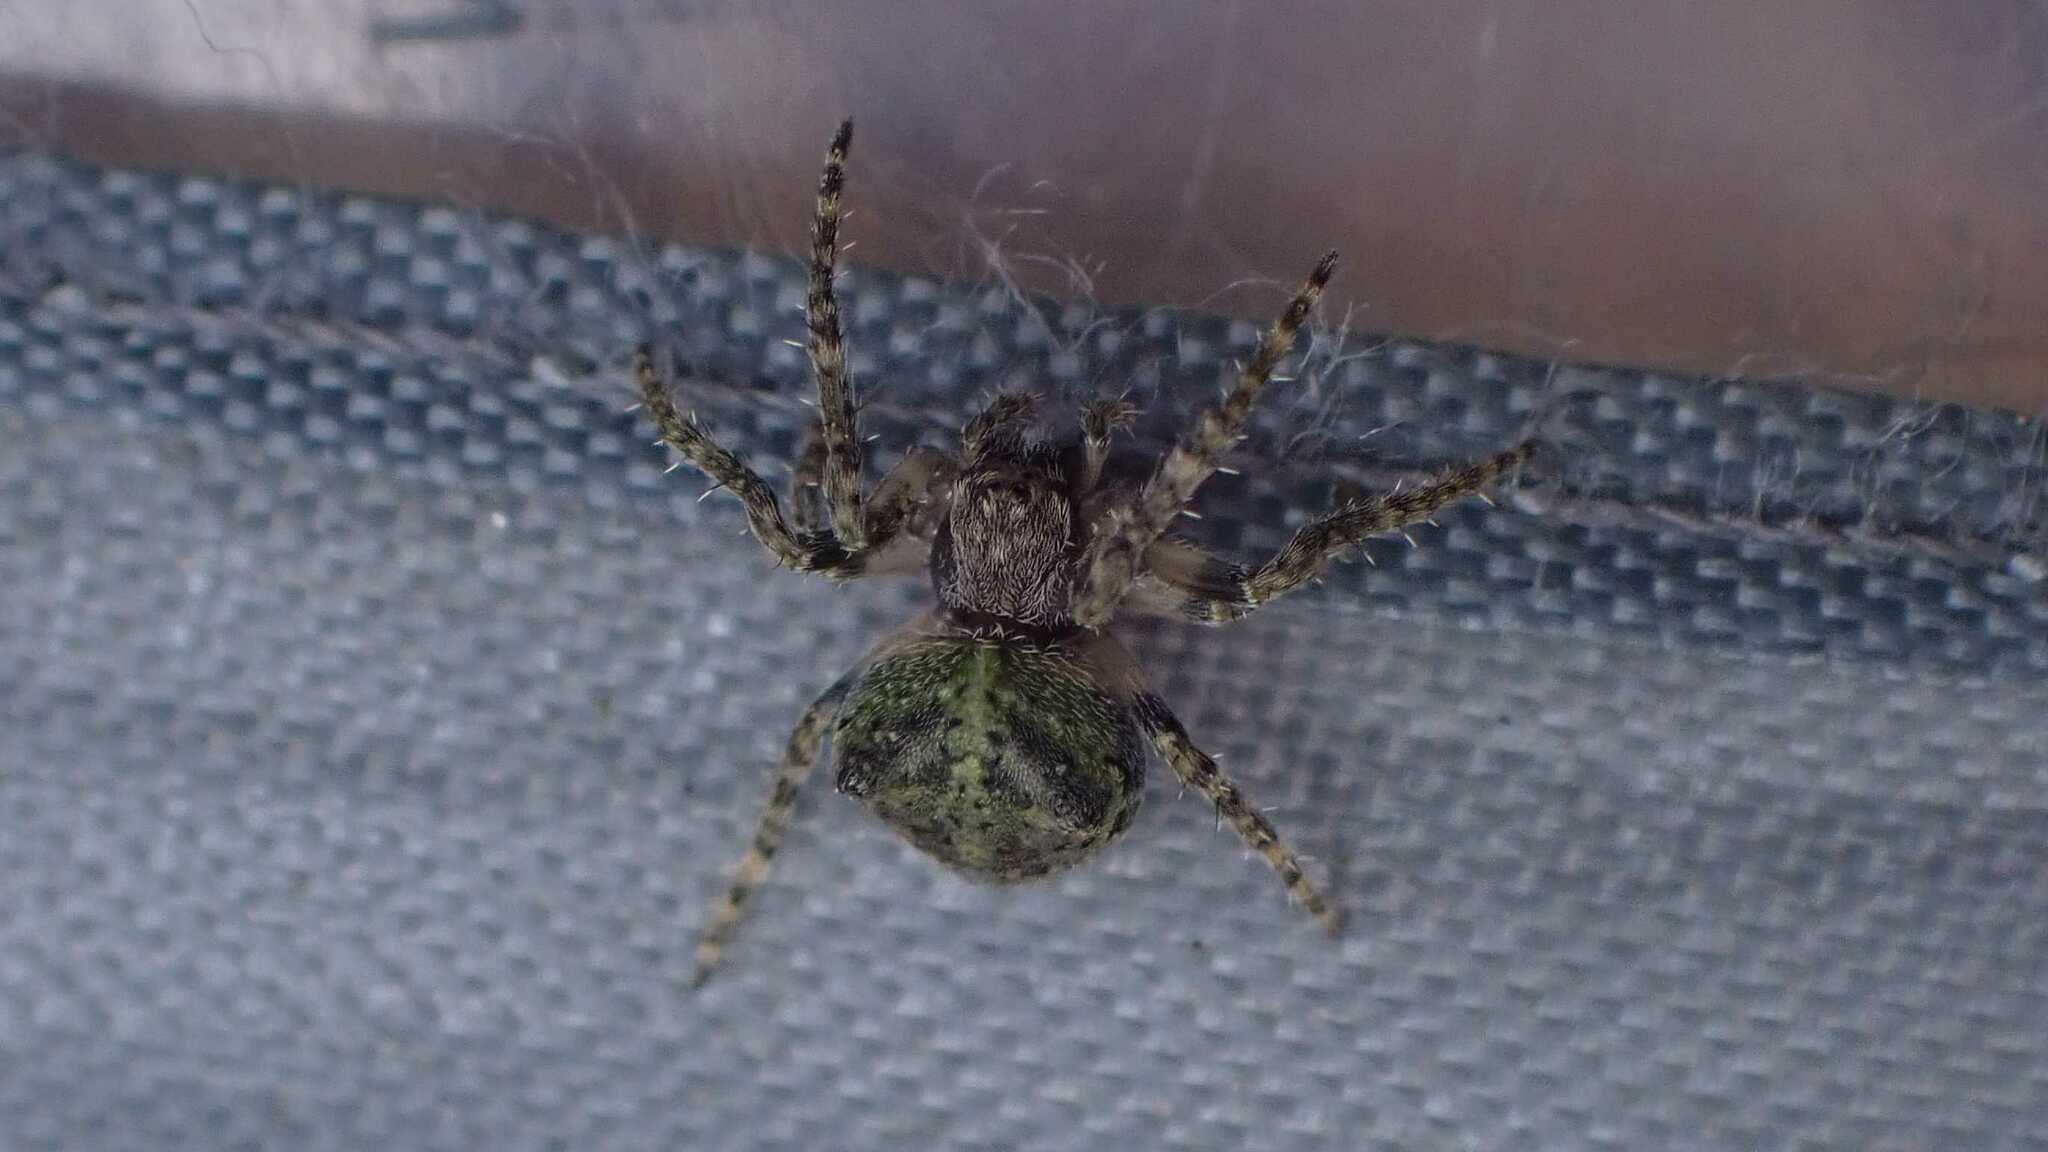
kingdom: Animalia
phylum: Arthropoda
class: Arachnida
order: Araneae
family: Araneidae
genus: Gibbaranea
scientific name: Gibbaranea gibbosa
